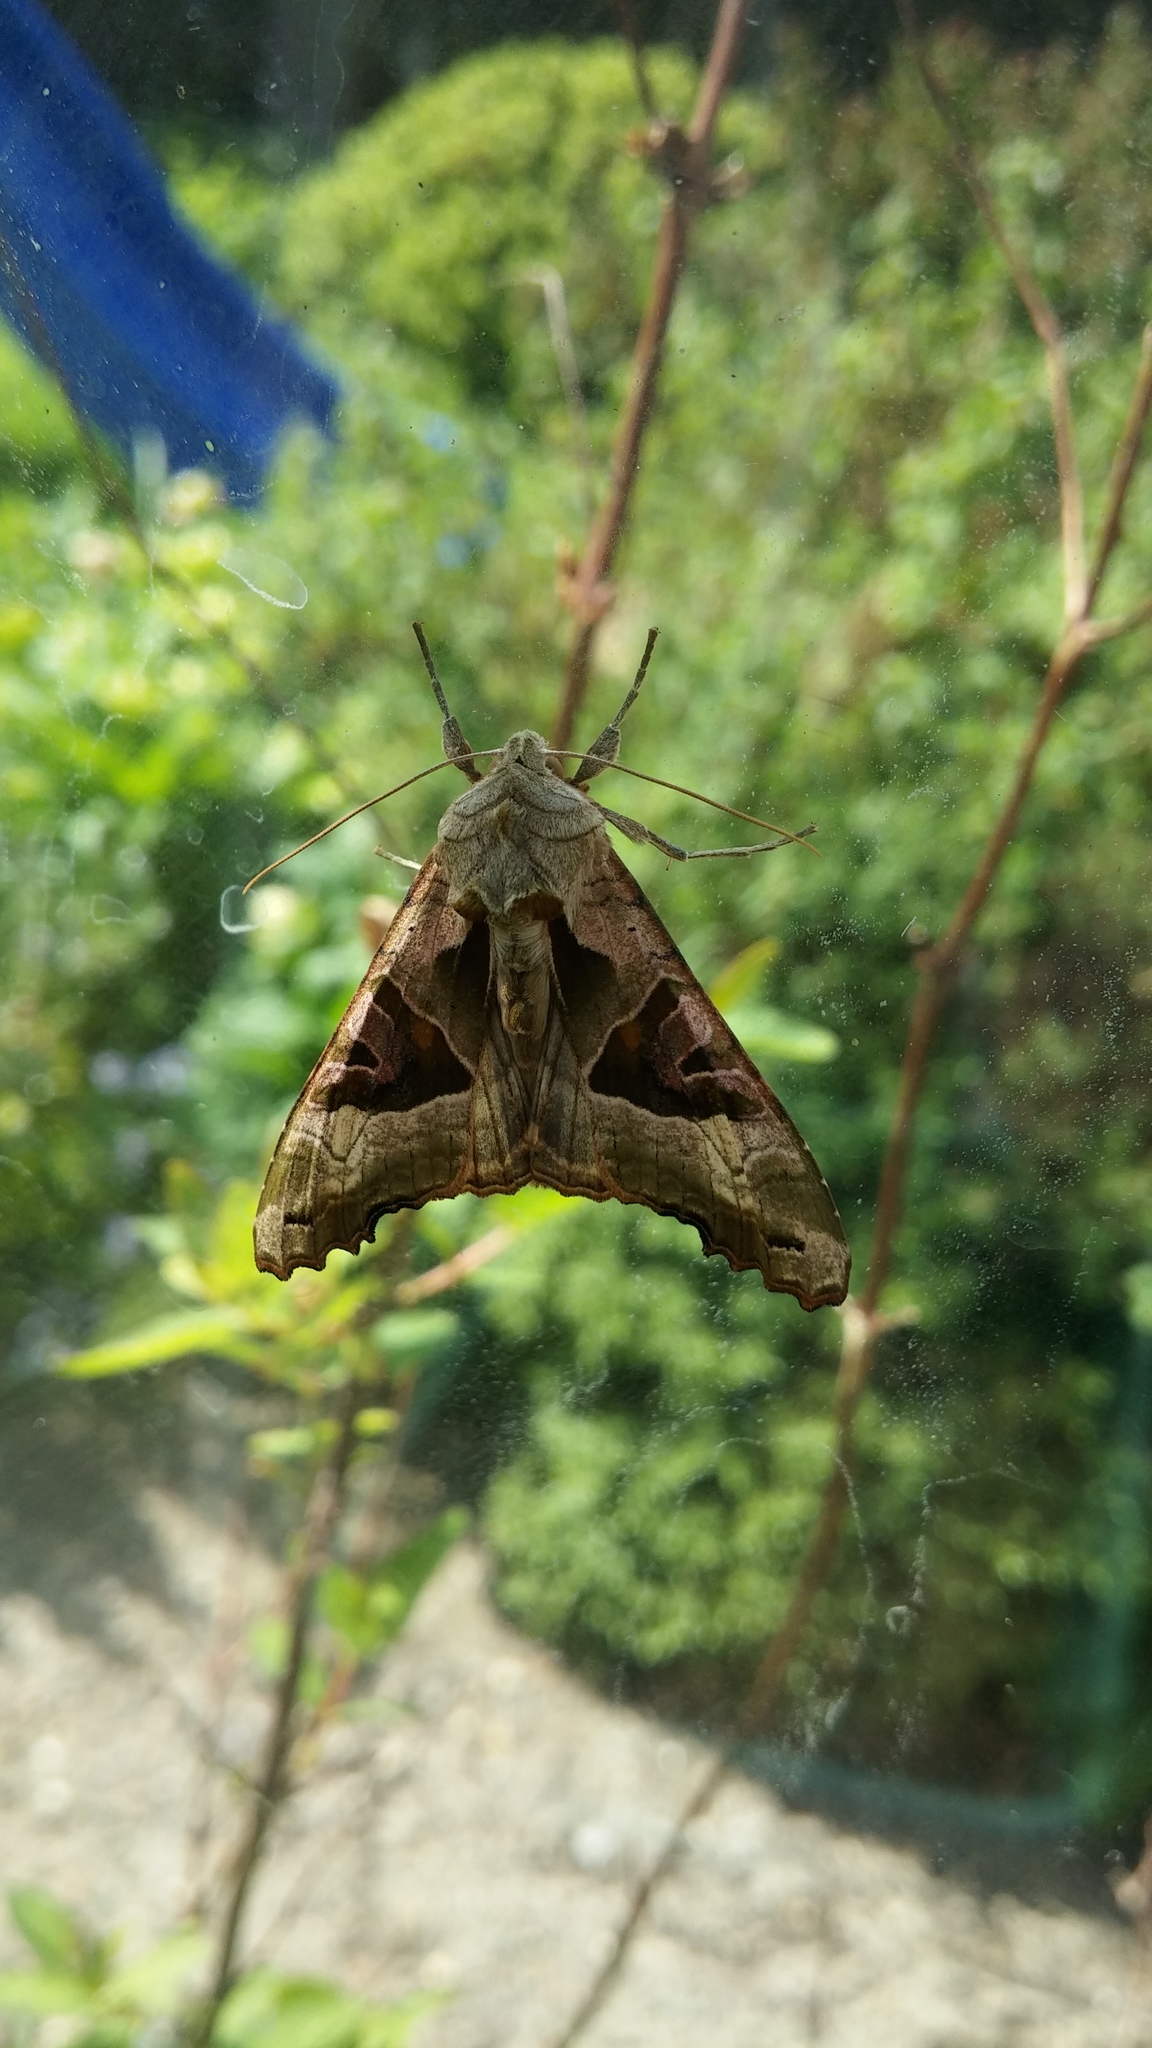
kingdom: Animalia
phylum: Arthropoda
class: Insecta
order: Lepidoptera
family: Noctuidae
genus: Phlogophora
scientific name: Phlogophora meticulosa
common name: Angle shades
